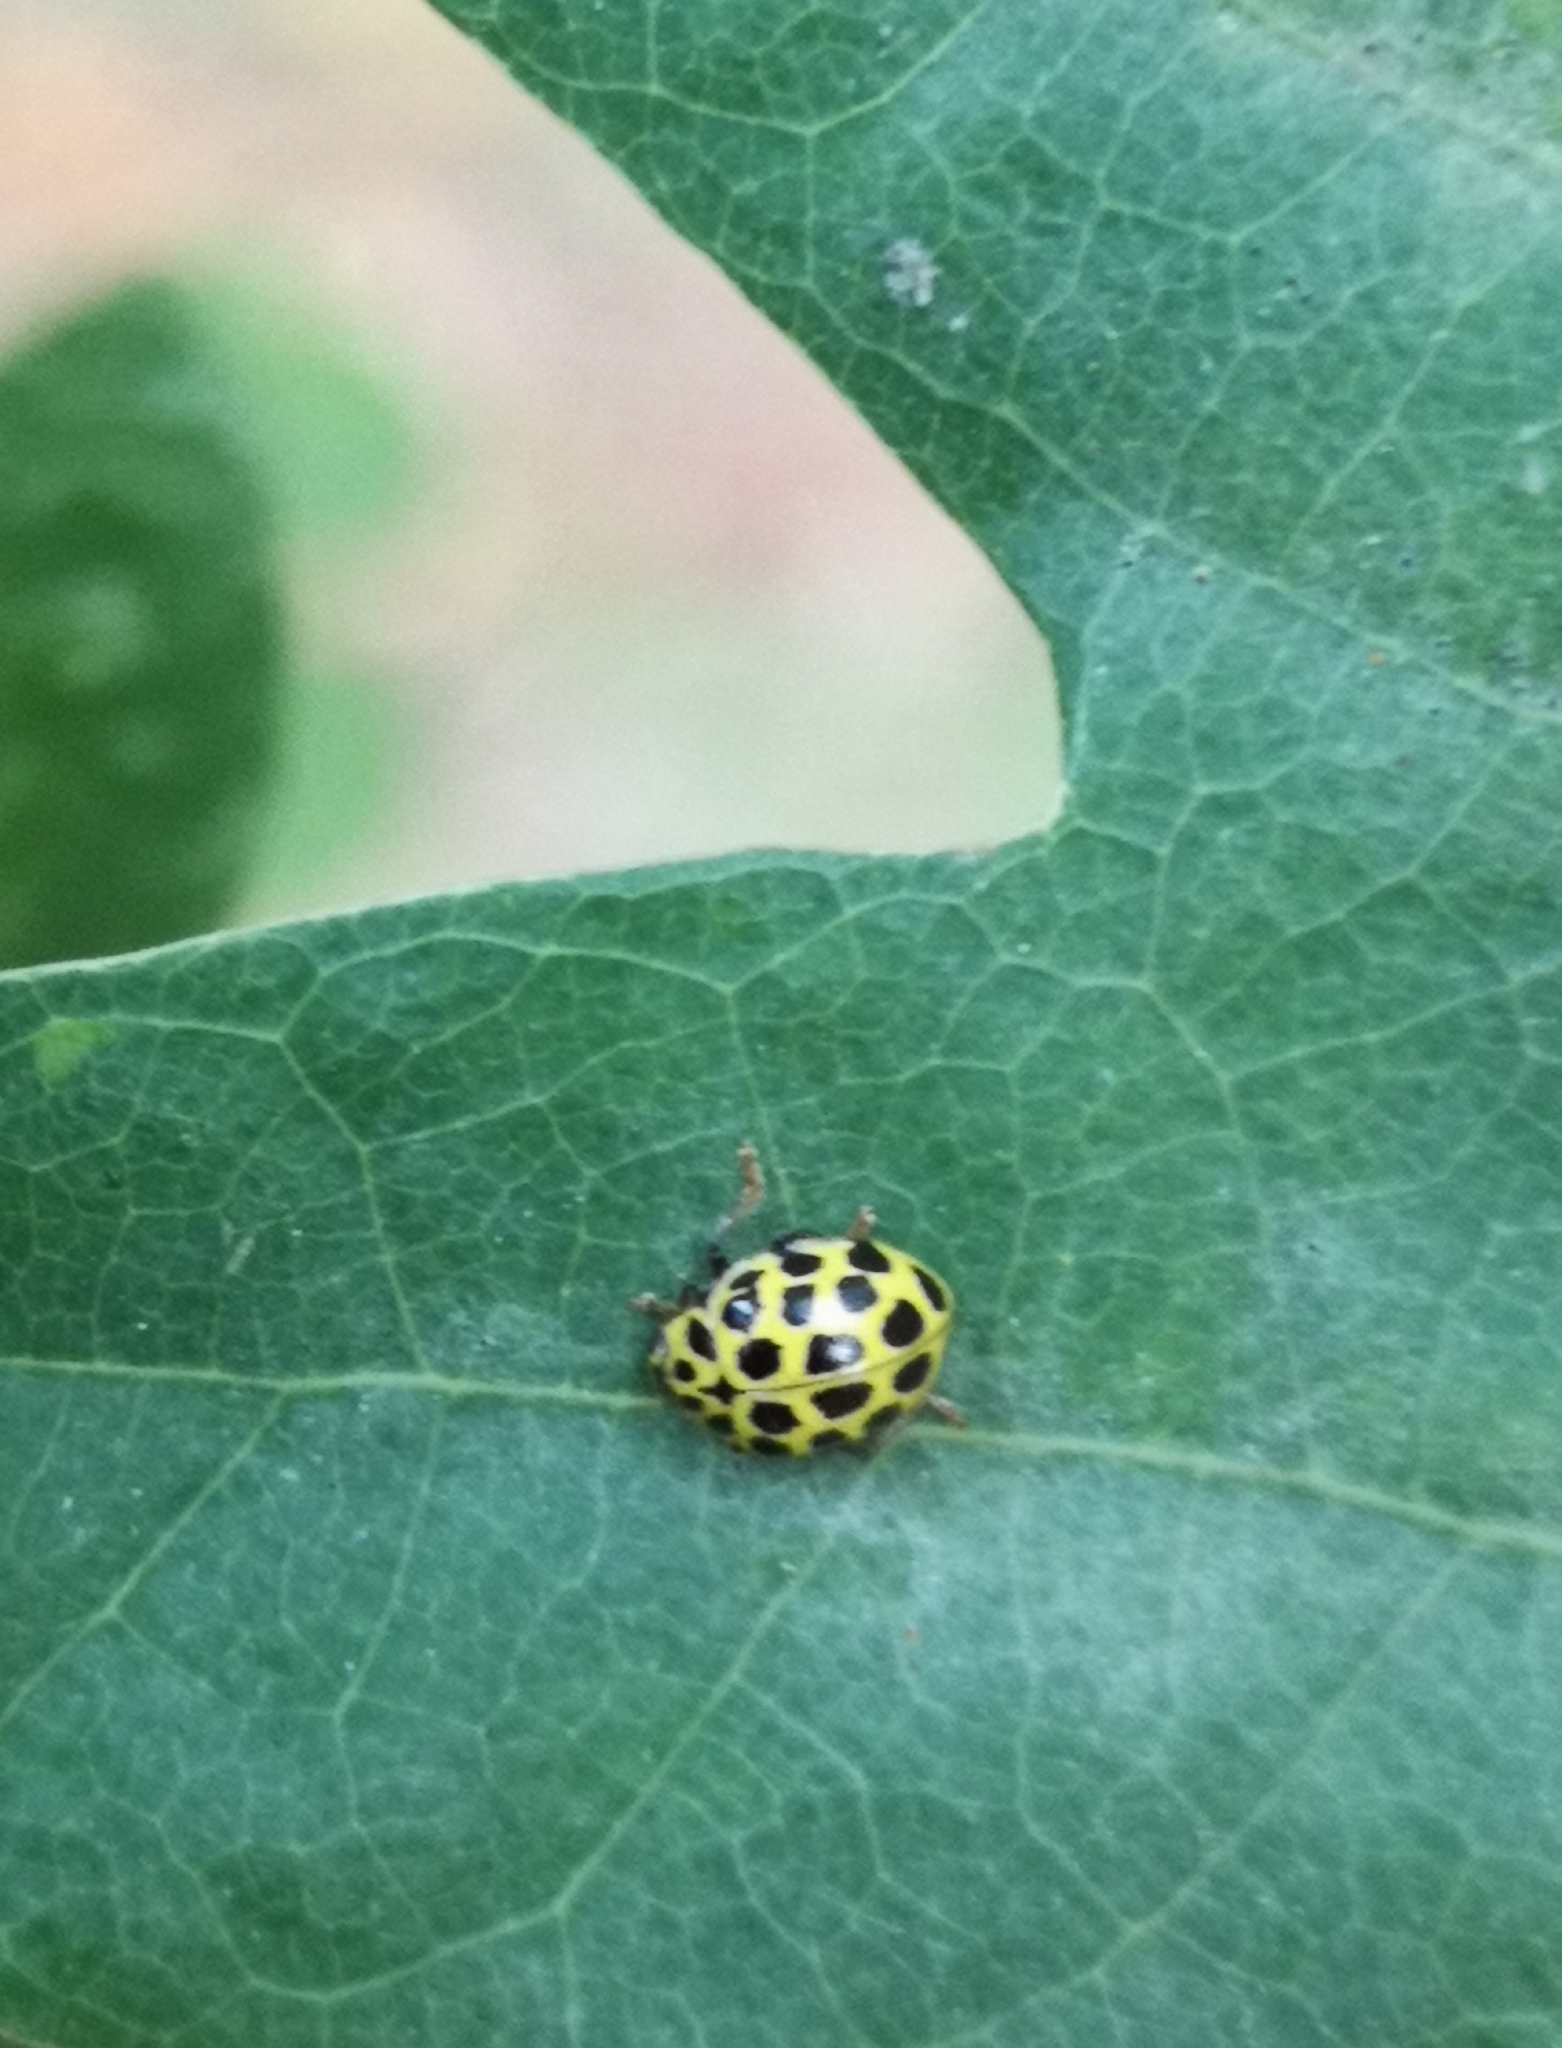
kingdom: Animalia
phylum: Arthropoda
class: Insecta
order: Coleoptera
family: Coccinellidae
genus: Psyllobora
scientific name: Psyllobora vigintiduopunctata
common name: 22-spot ladybird
